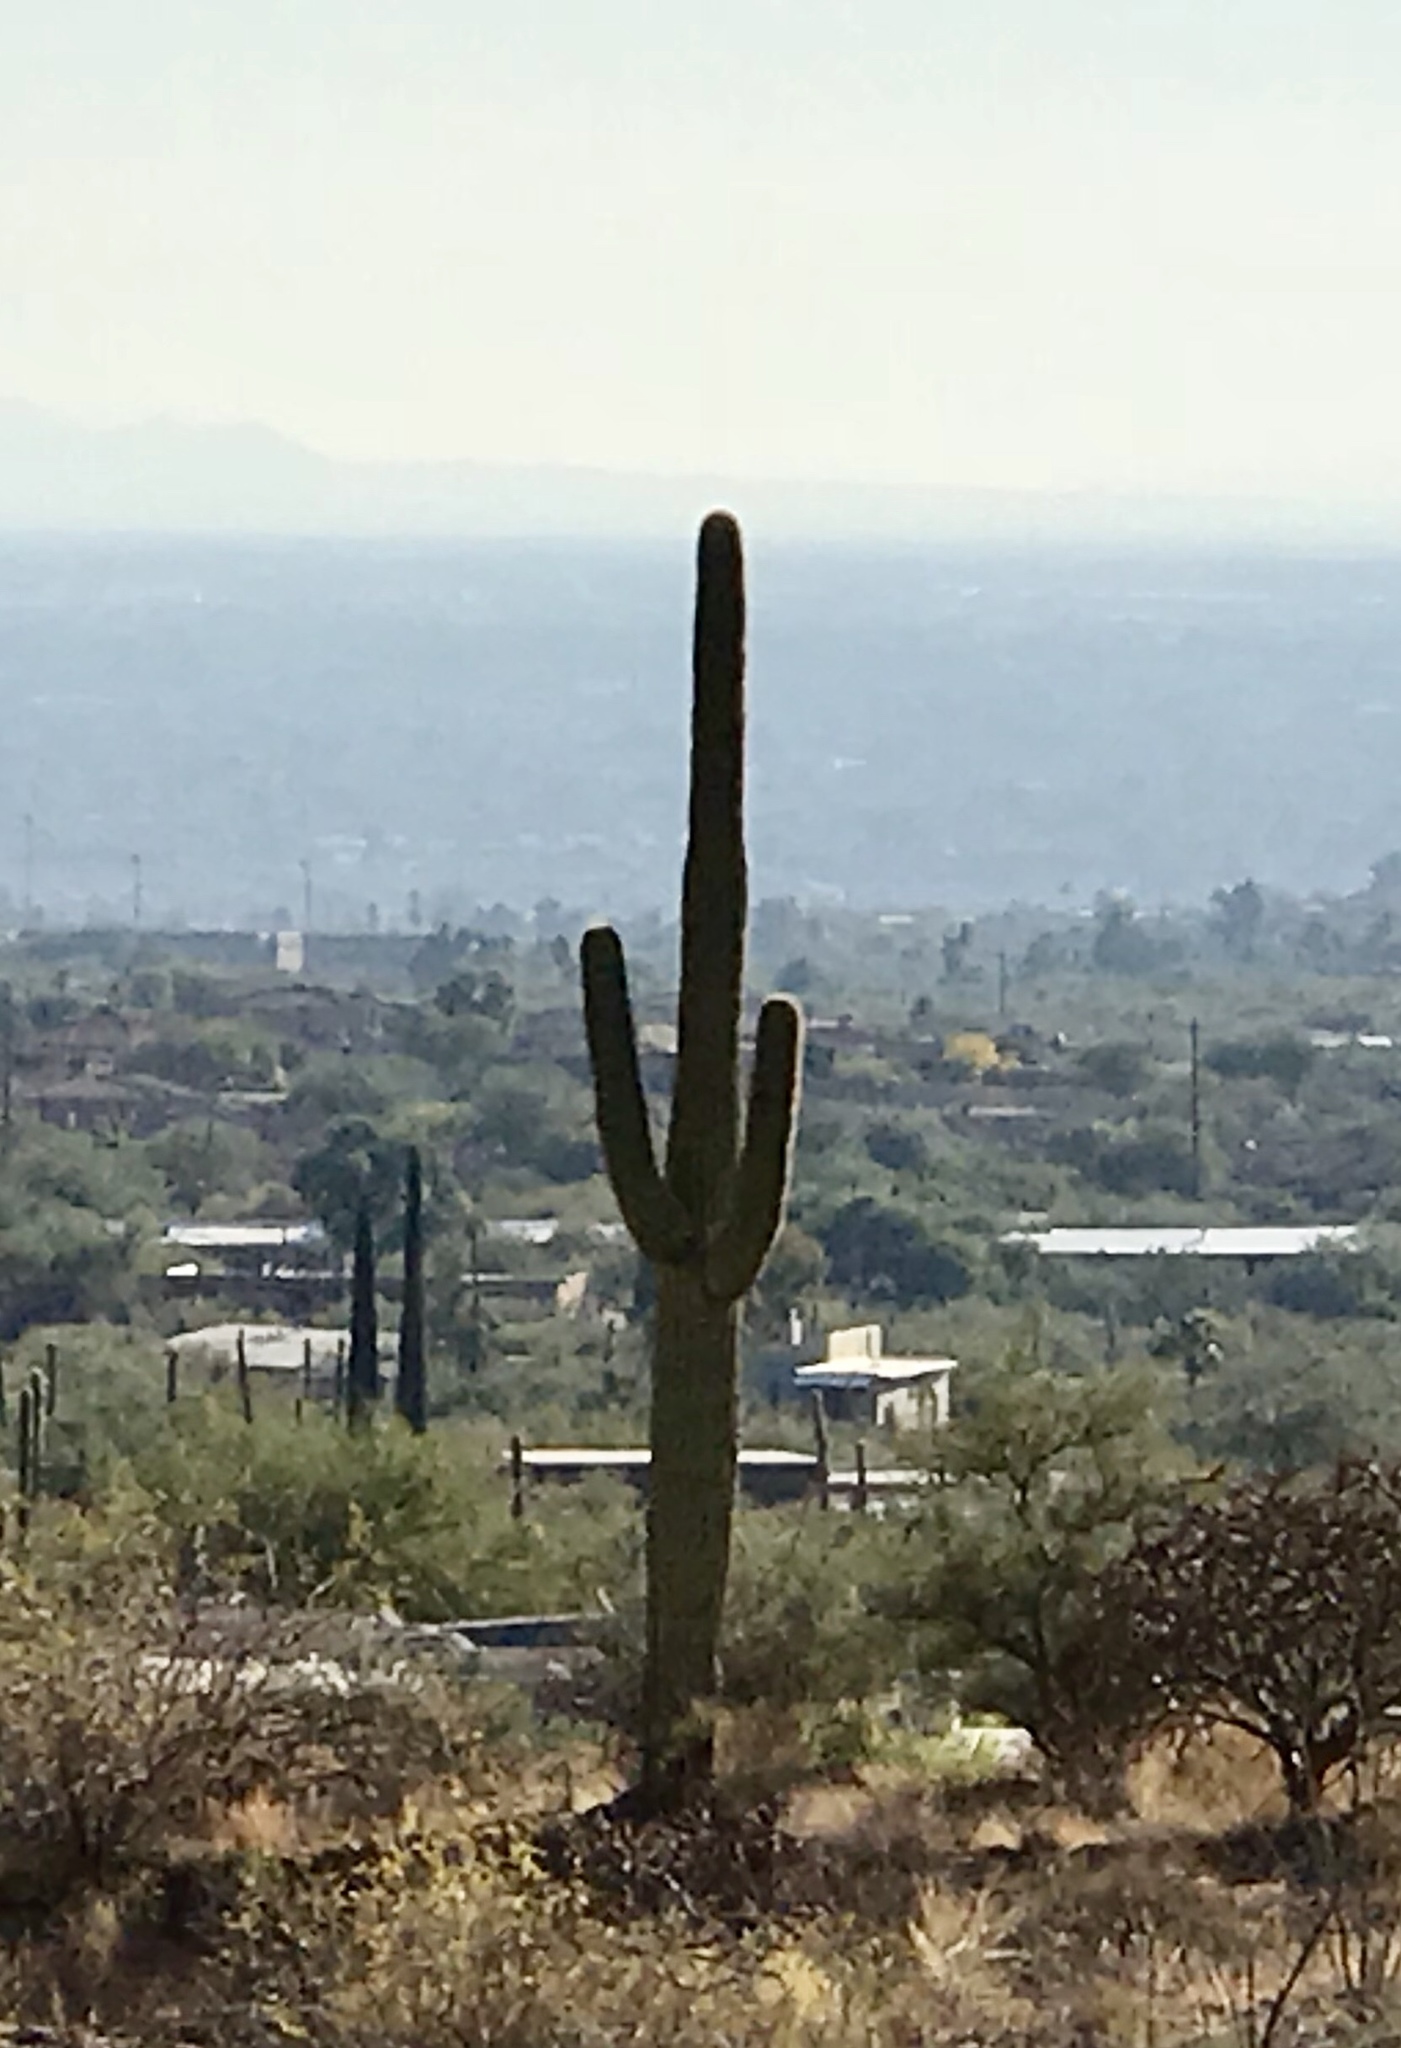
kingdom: Plantae
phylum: Tracheophyta
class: Magnoliopsida
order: Caryophyllales
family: Cactaceae
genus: Carnegiea
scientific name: Carnegiea gigantea
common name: Saguaro
